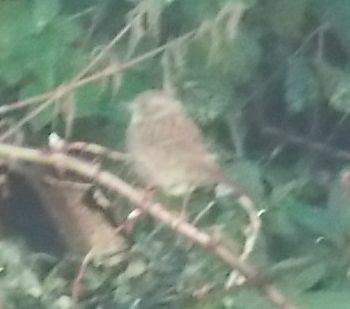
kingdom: Animalia
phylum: Chordata
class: Aves
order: Passeriformes
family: Prunellidae
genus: Prunella
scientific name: Prunella modularis
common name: Dunnock
